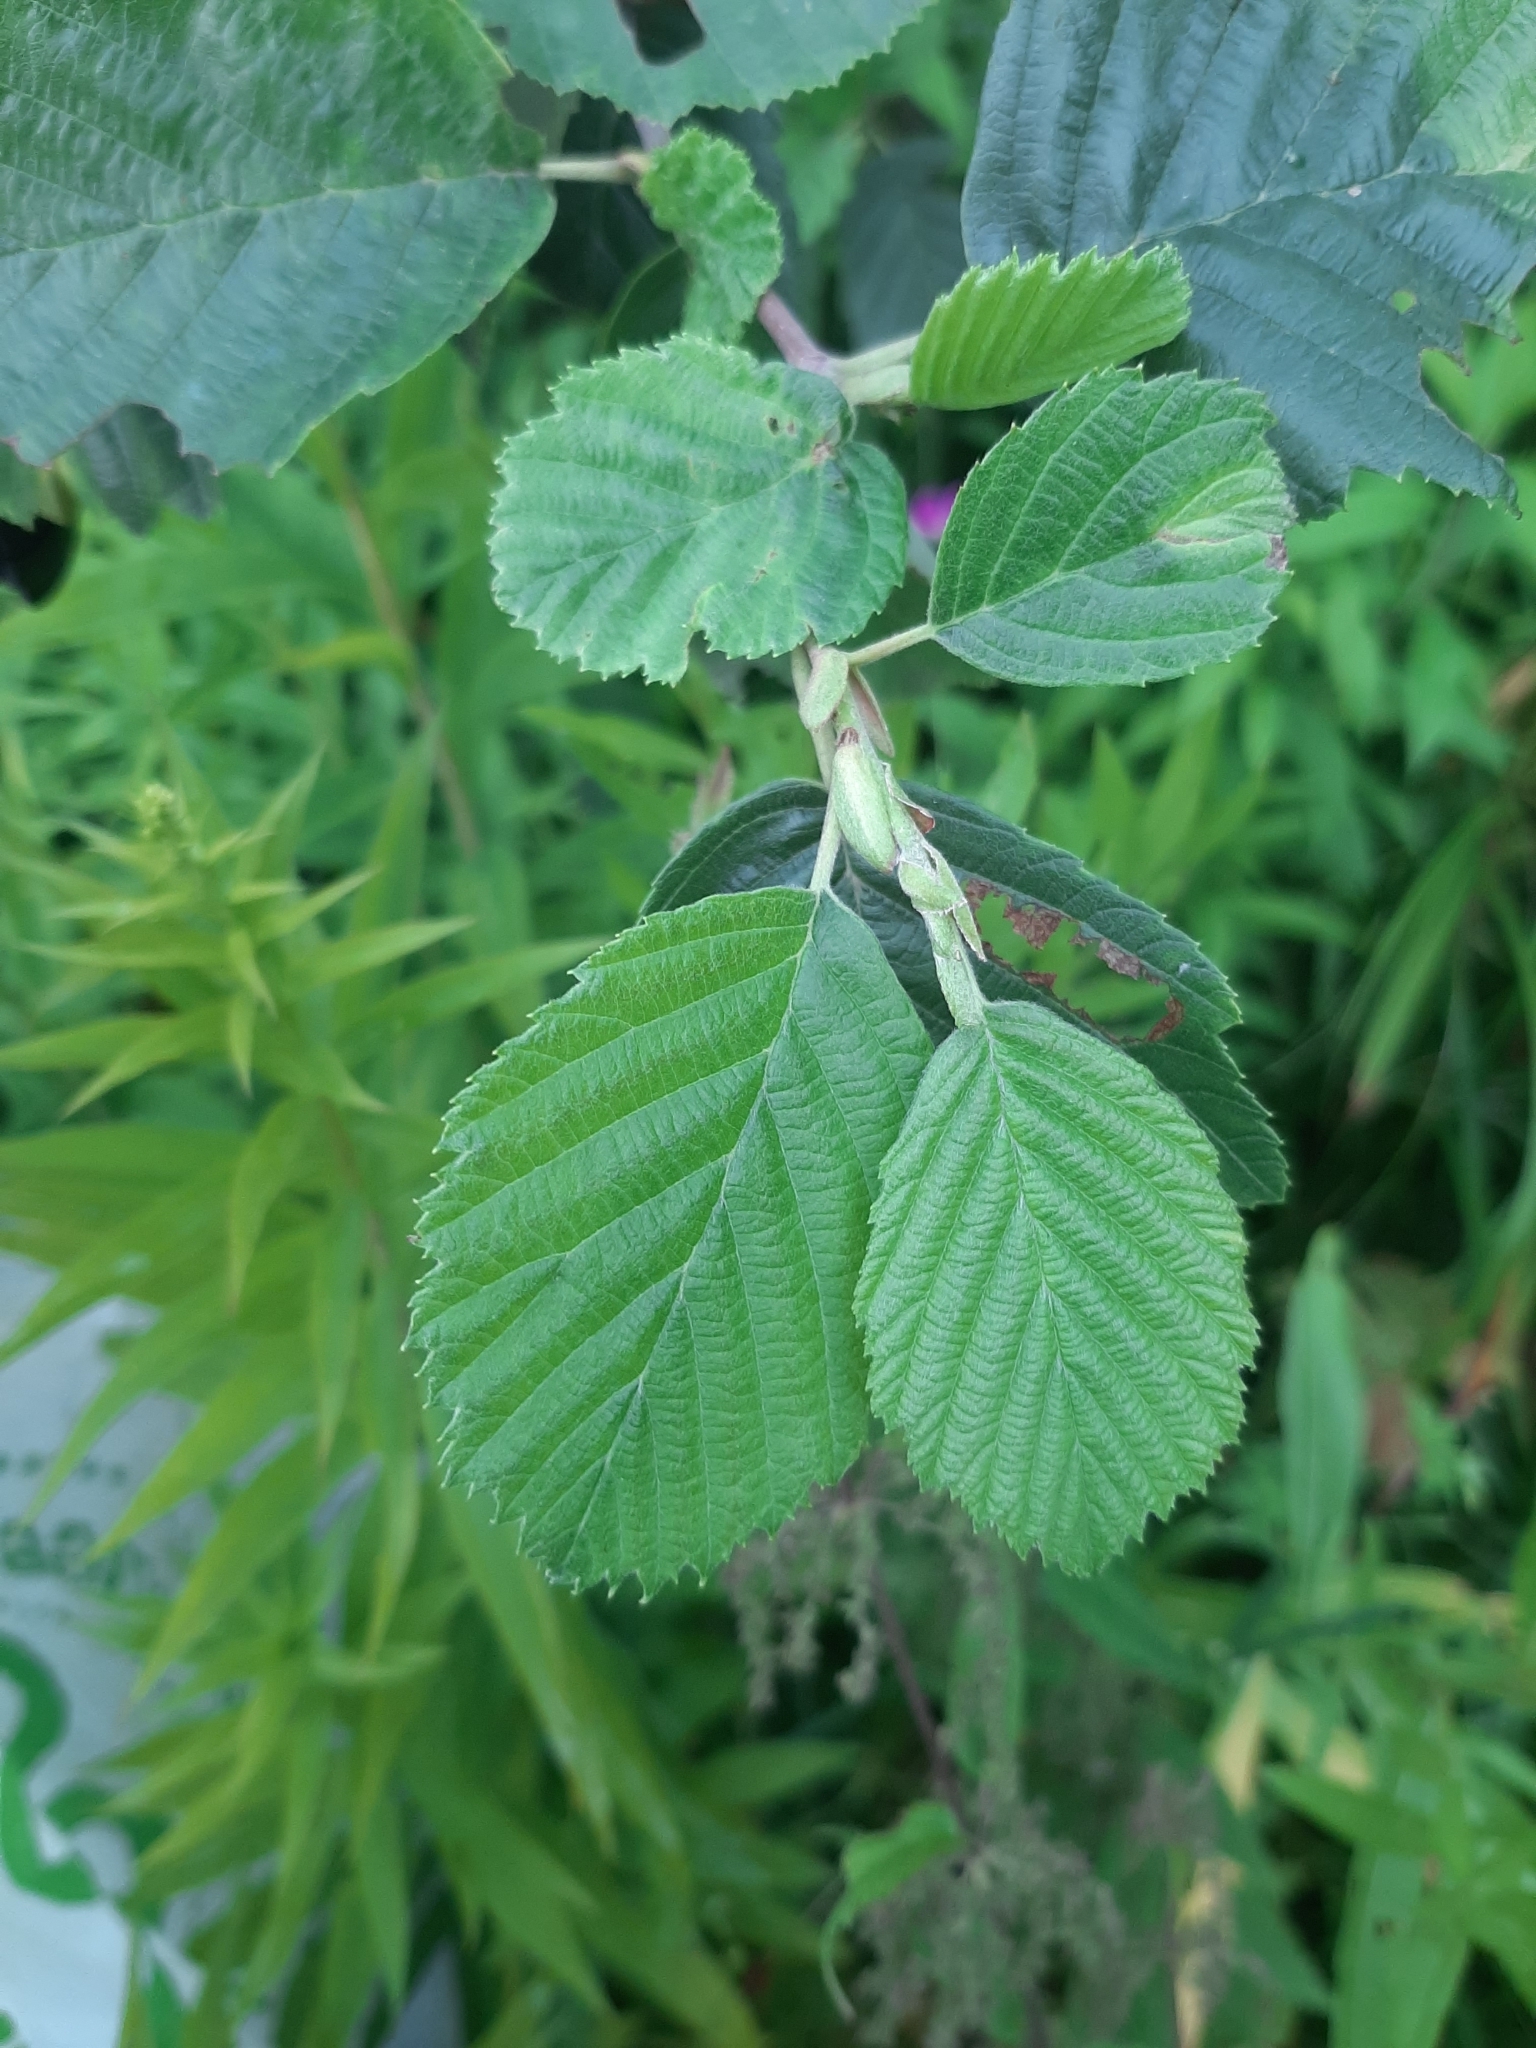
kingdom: Plantae
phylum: Tracheophyta
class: Magnoliopsida
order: Fagales
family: Betulaceae
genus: Alnus
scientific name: Alnus incana
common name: Grey alder
